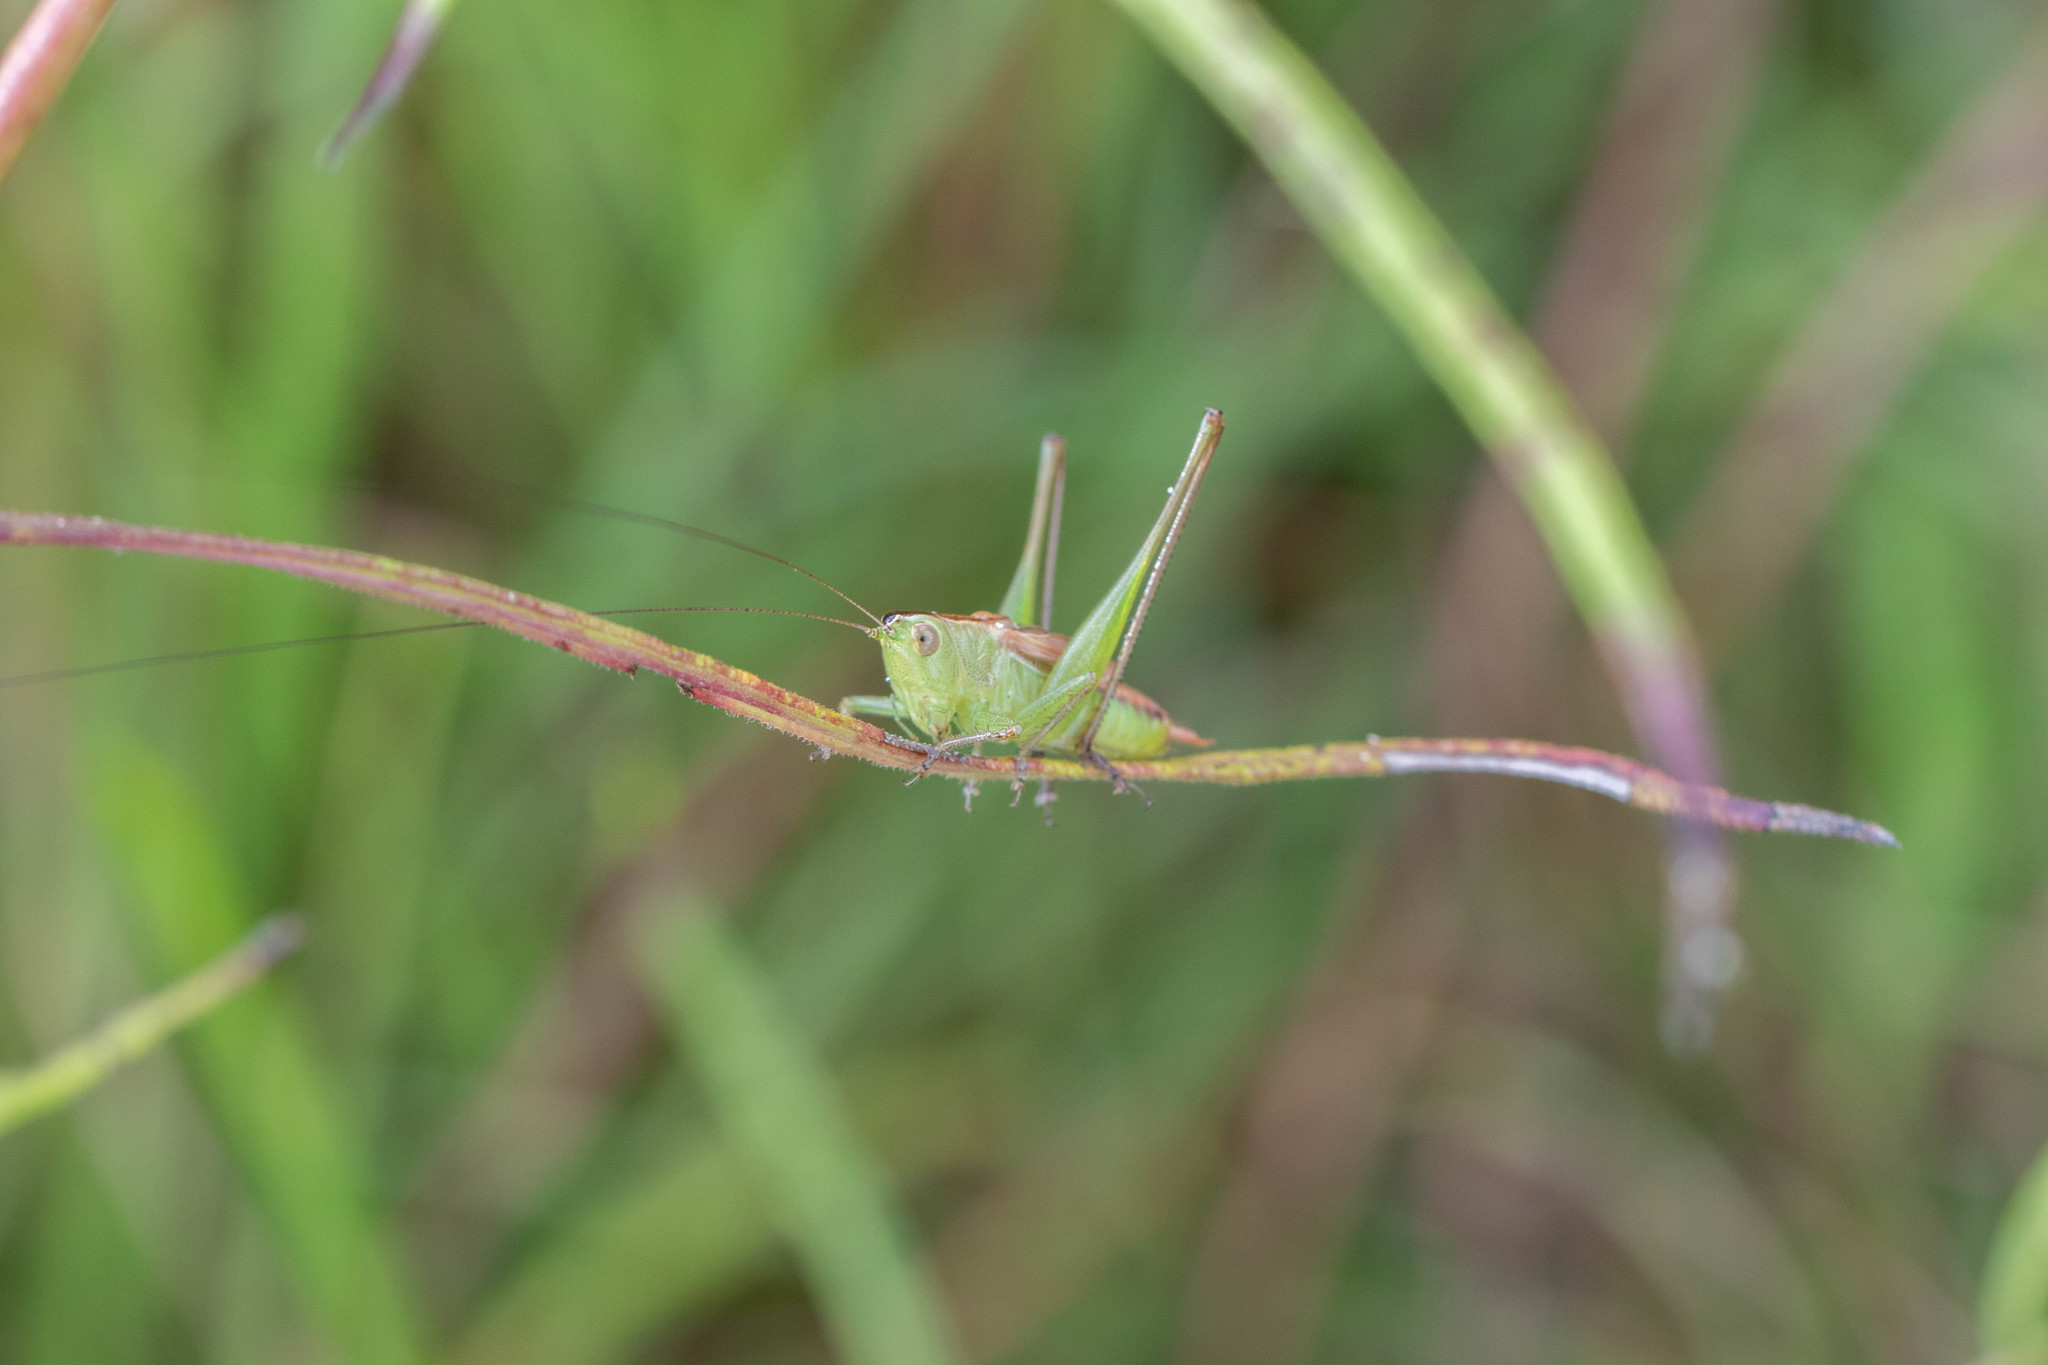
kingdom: Animalia
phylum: Arthropoda
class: Insecta
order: Orthoptera
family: Tettigoniidae
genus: Conocephalus
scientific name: Conocephalus strictus
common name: Straight-lanced katydid
